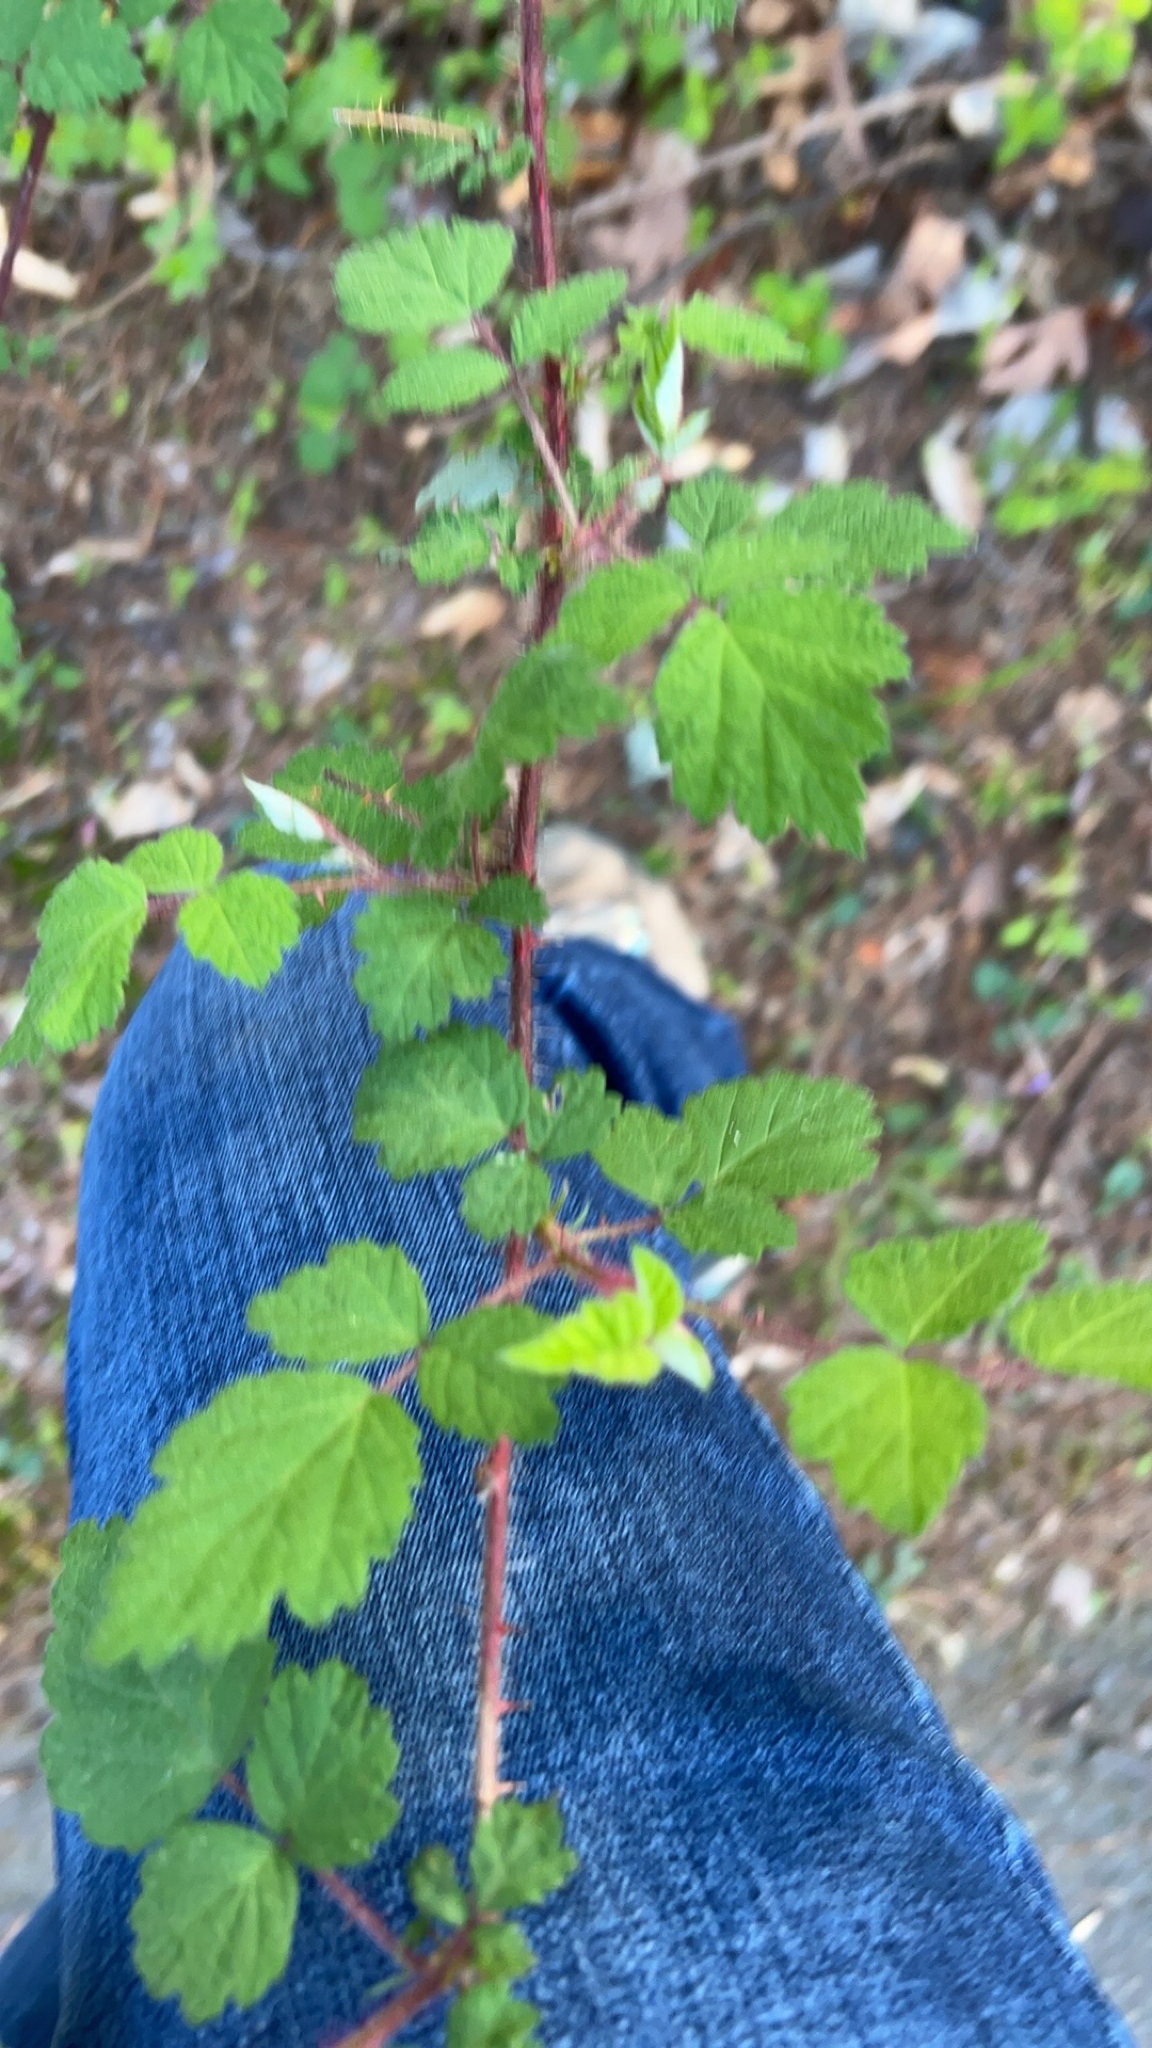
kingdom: Plantae
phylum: Tracheophyta
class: Magnoliopsida
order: Rosales
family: Rosaceae
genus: Rubus
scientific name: Rubus phoenicolasius
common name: Japanese wineberry
